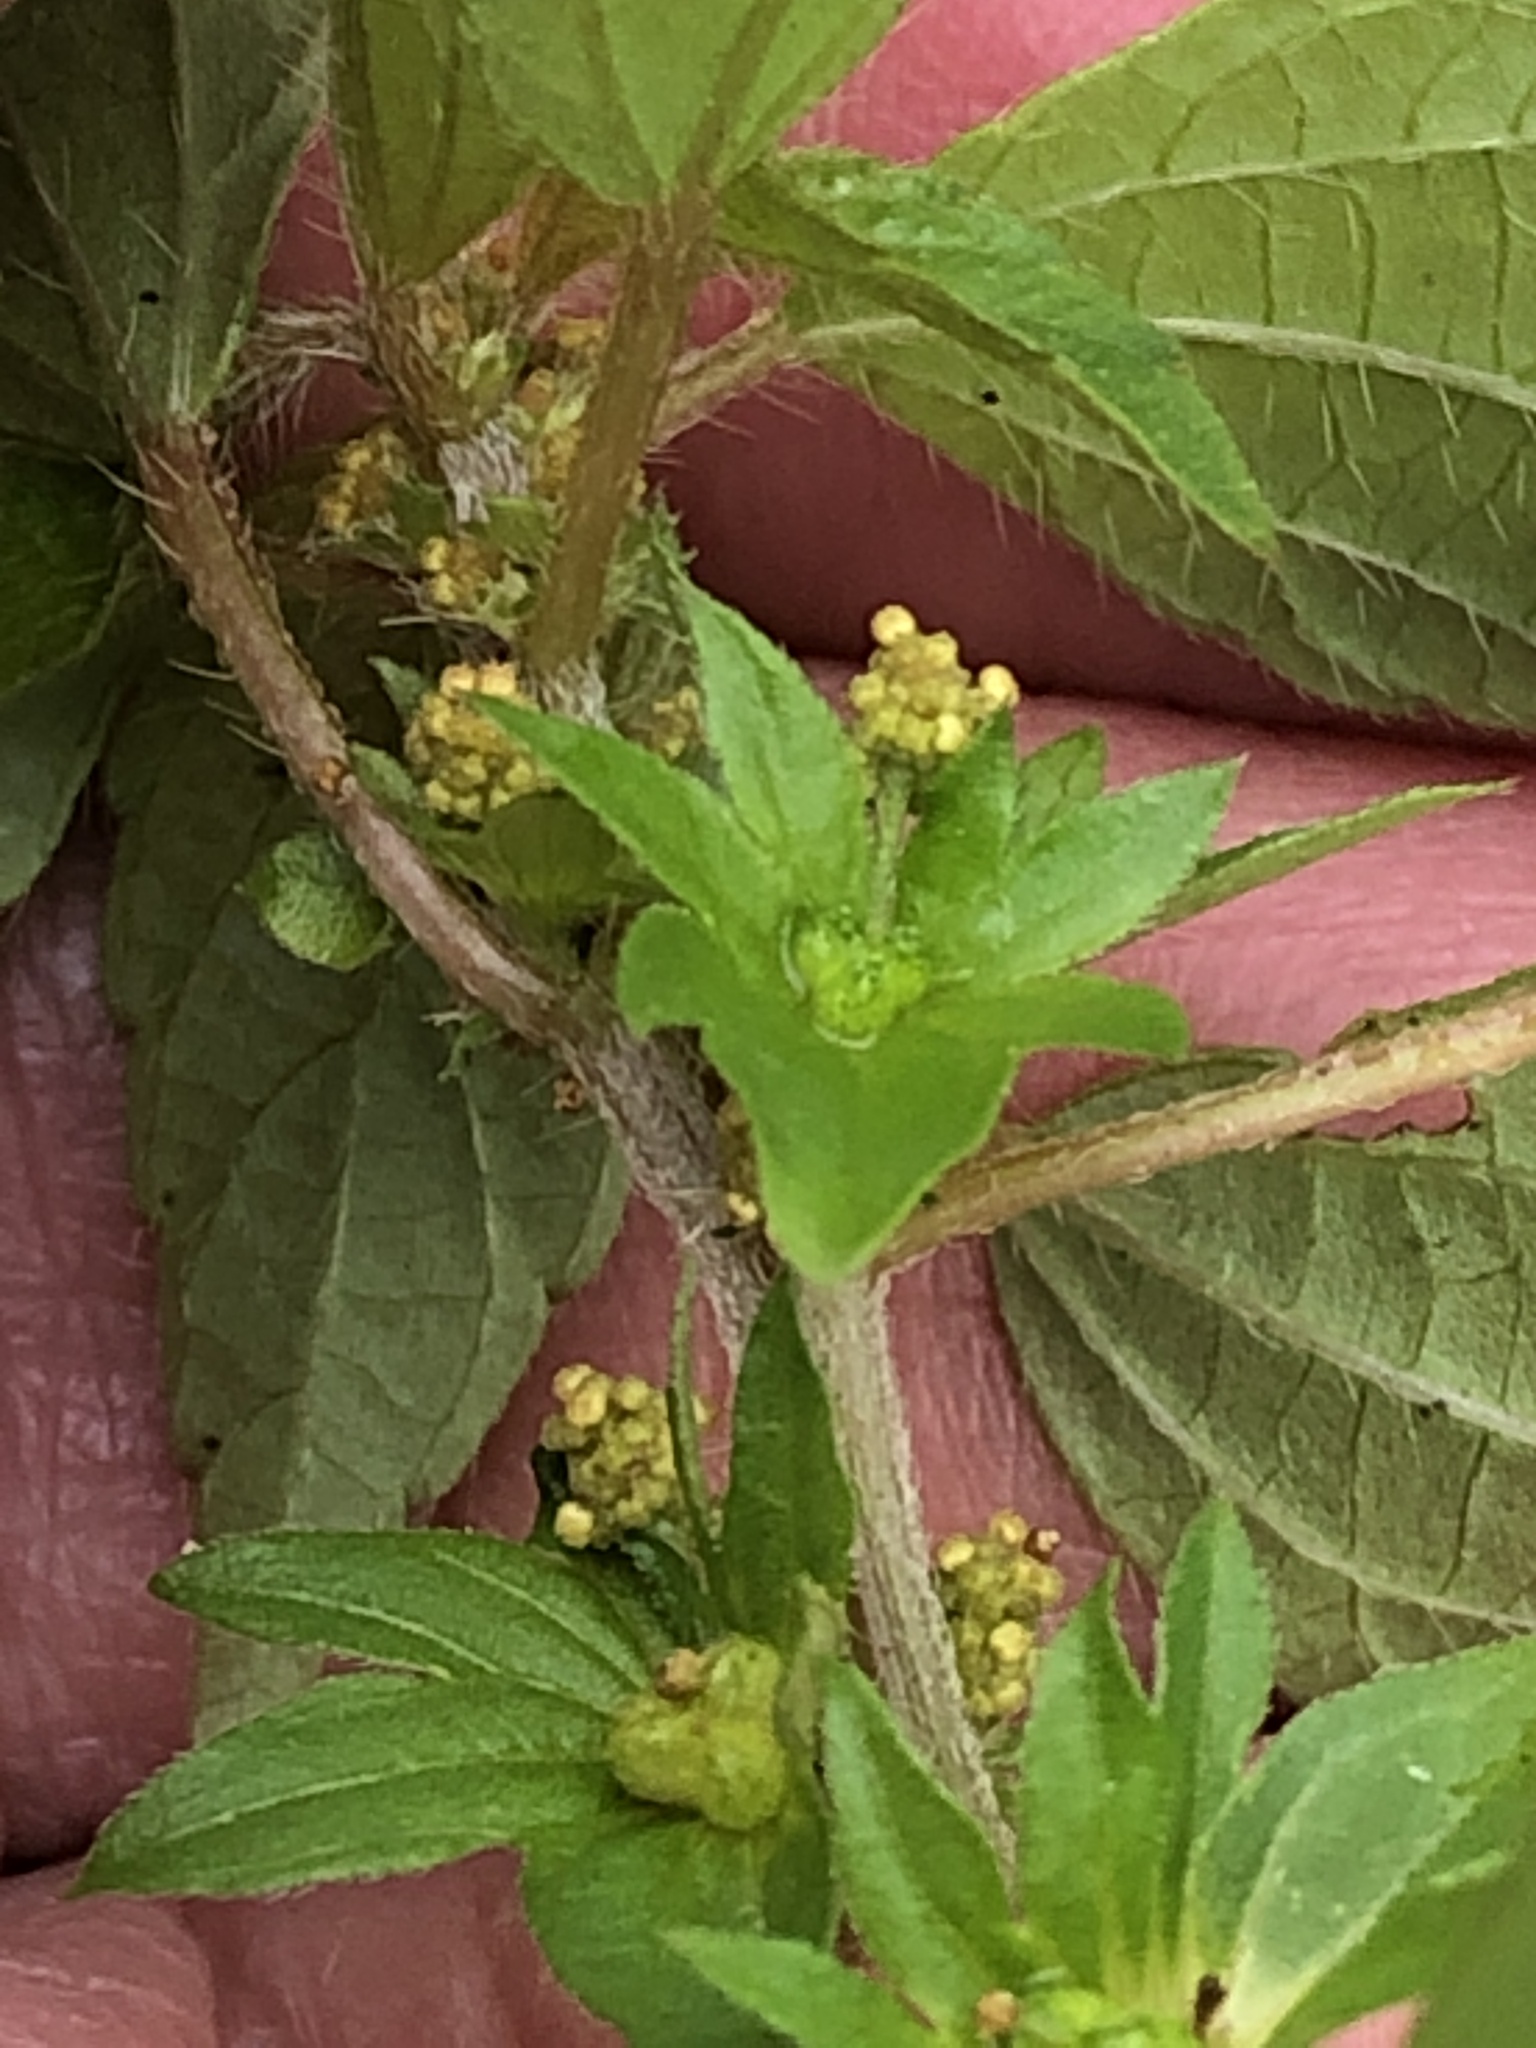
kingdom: Plantae
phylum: Tracheophyta
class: Magnoliopsida
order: Malpighiales
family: Euphorbiaceae
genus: Acalypha
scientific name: Acalypha rhomboidea
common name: Rhombic copperleaf
